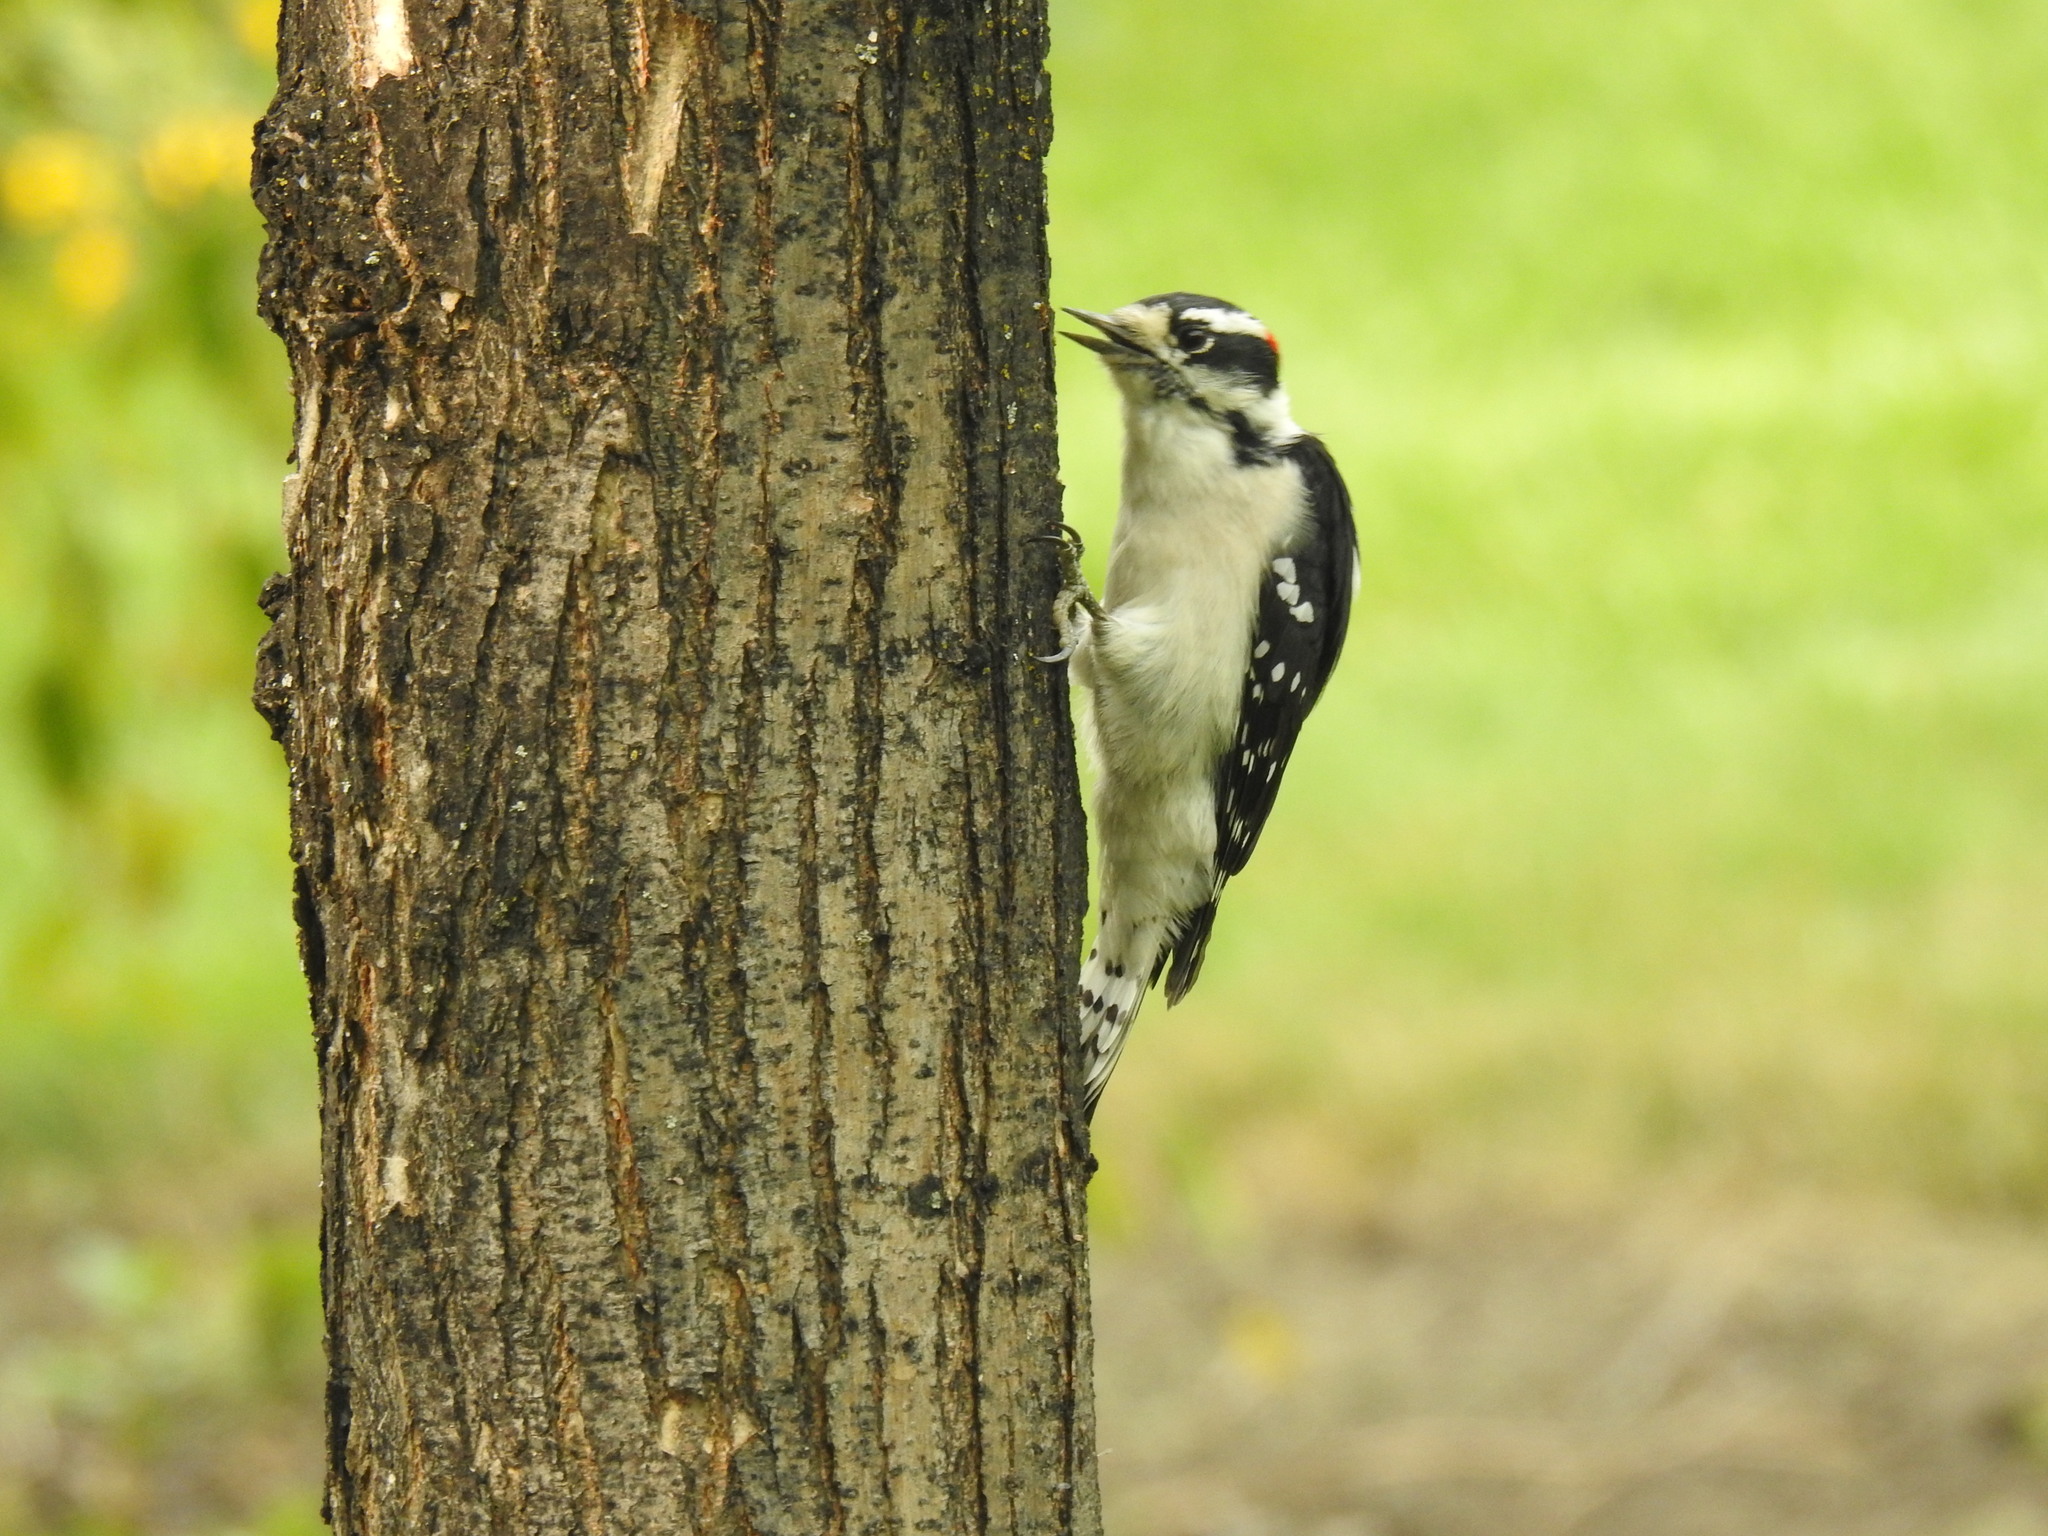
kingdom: Animalia
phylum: Chordata
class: Aves
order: Piciformes
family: Picidae
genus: Dryobates
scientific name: Dryobates pubescens
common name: Downy woodpecker
